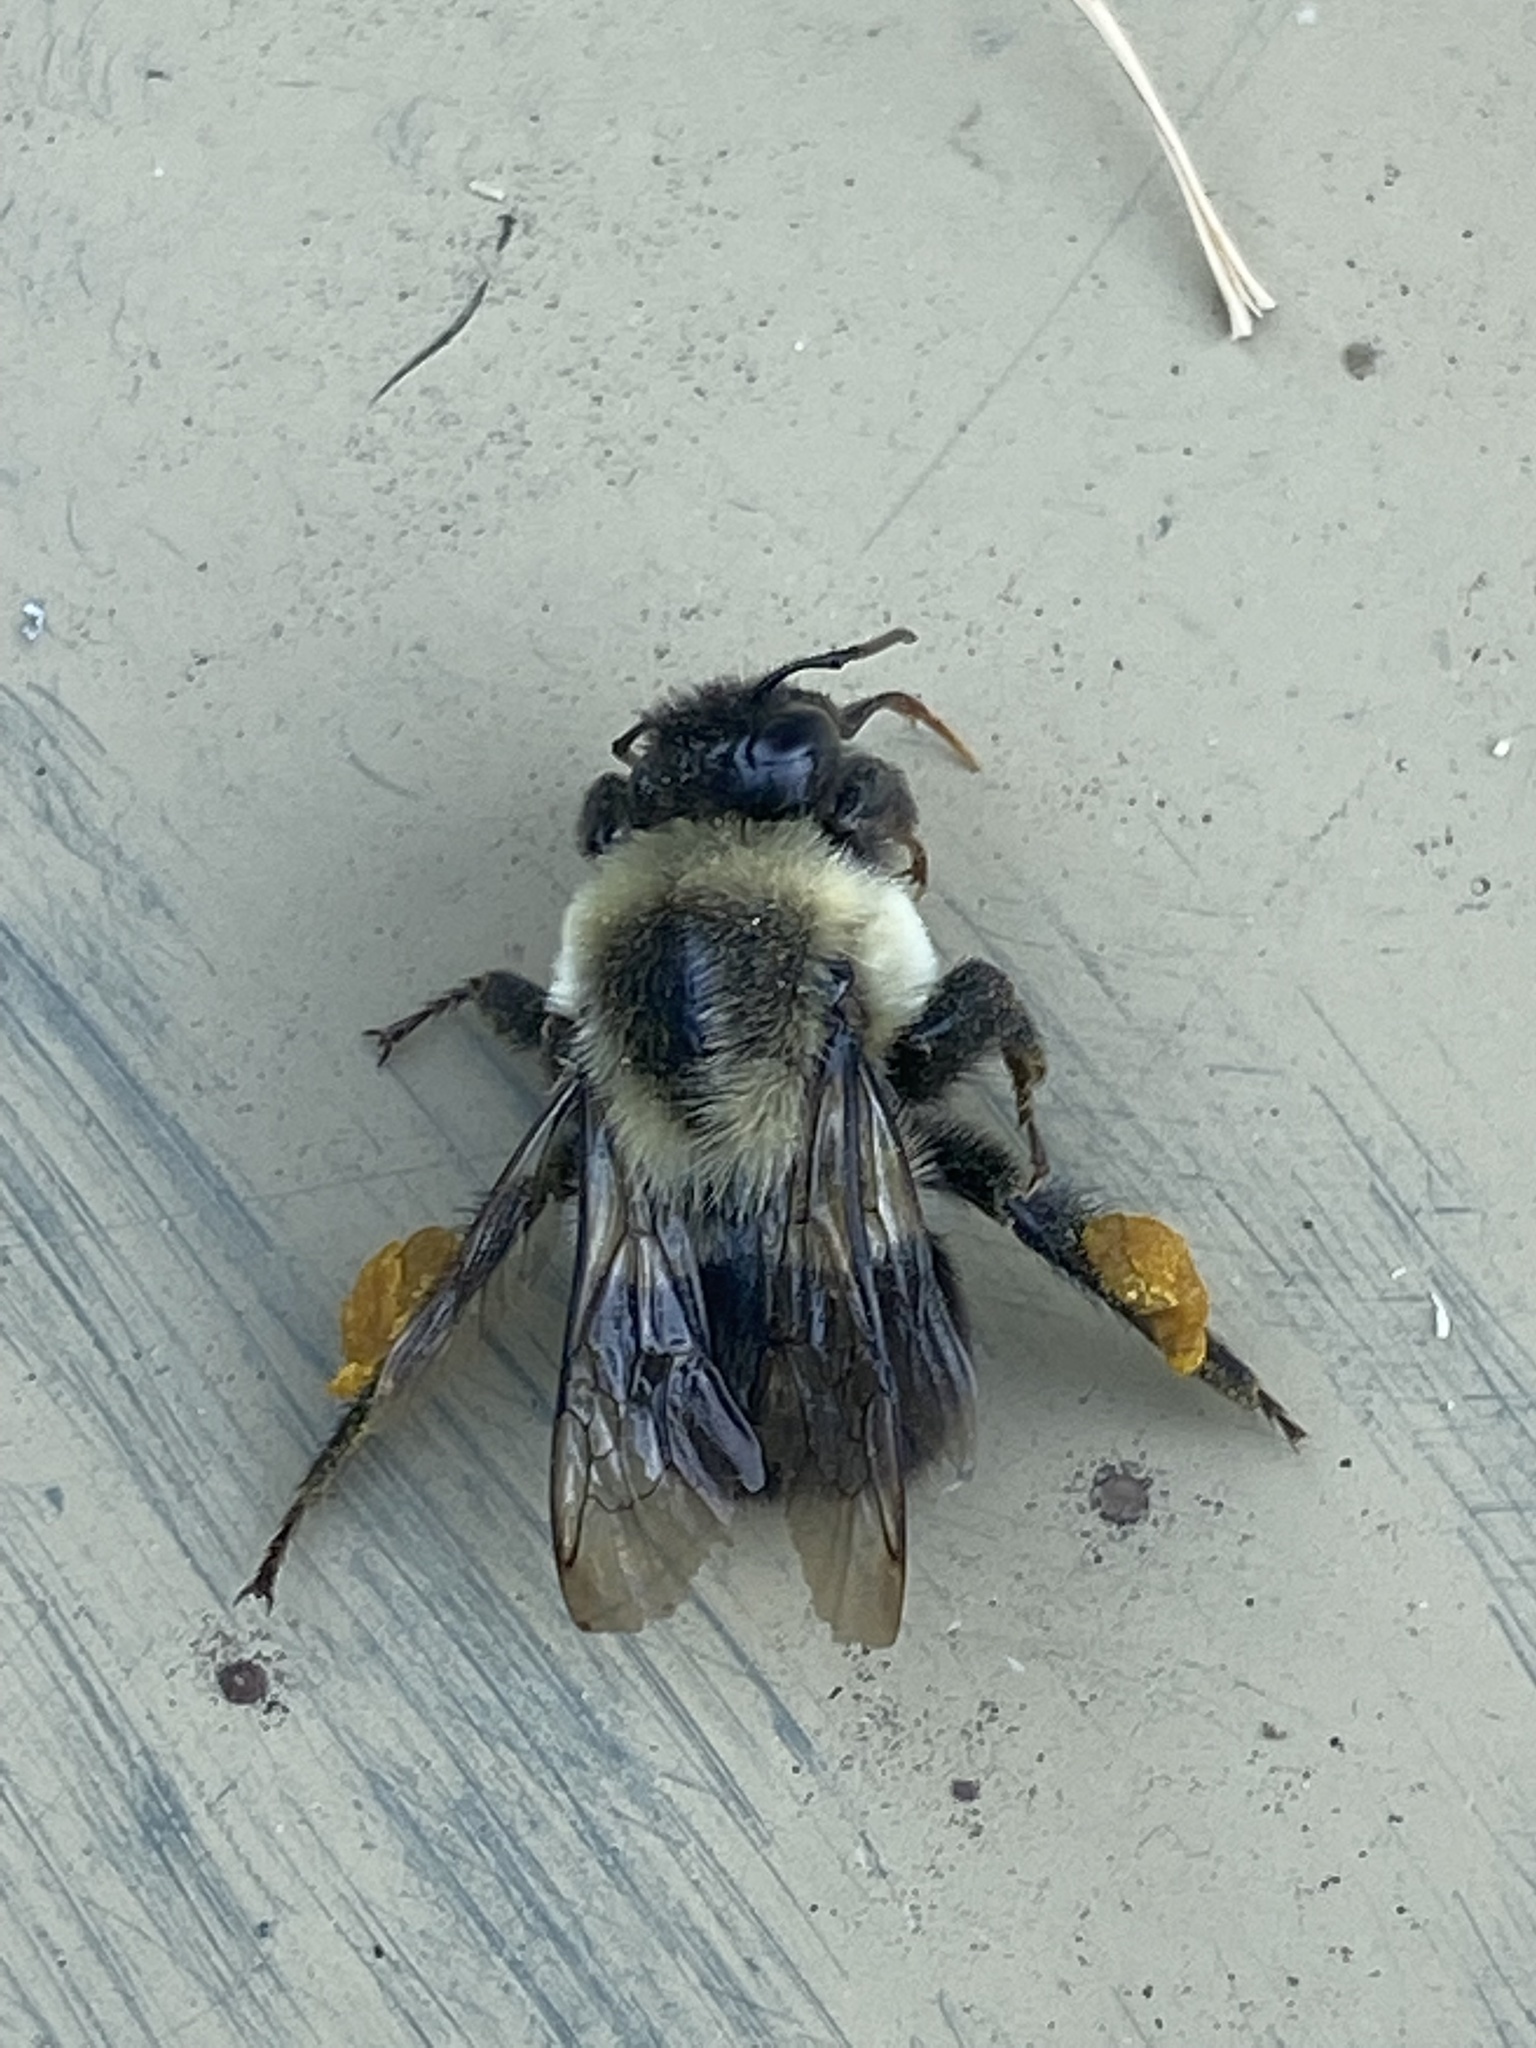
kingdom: Animalia
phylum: Arthropoda
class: Insecta
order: Hymenoptera
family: Apidae
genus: Bombus
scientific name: Bombus impatiens
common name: Common eastern bumble bee
